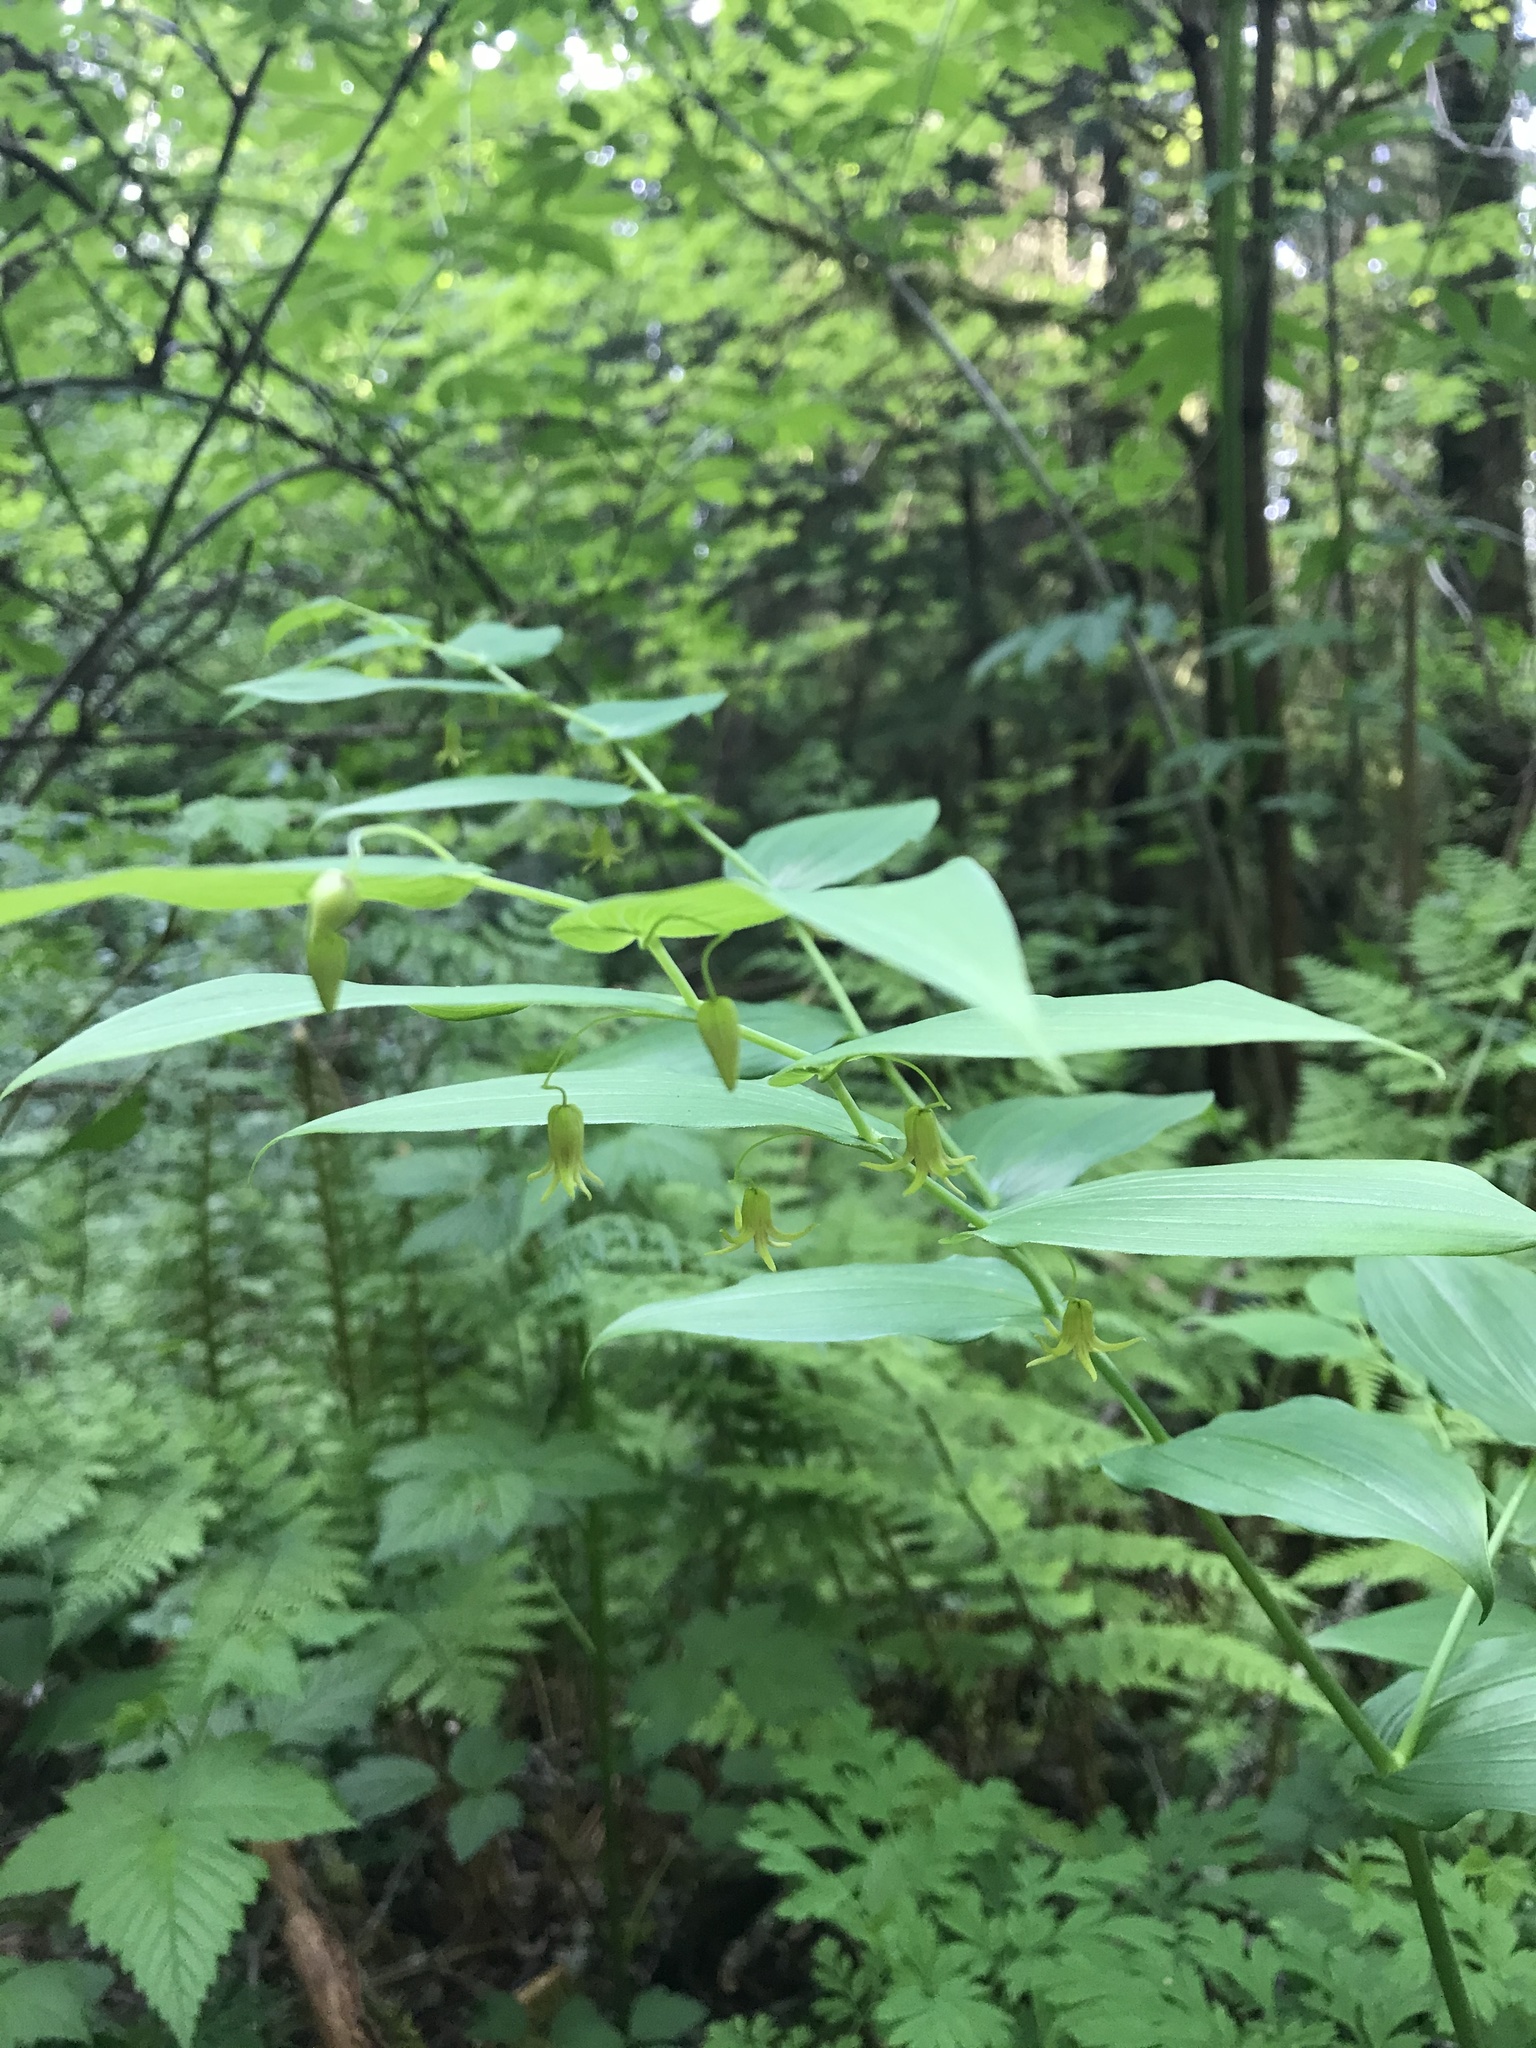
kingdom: Plantae
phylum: Tracheophyta
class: Liliopsida
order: Liliales
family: Liliaceae
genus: Streptopus
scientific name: Streptopus amplexifolius
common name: Clasp twisted stalk
